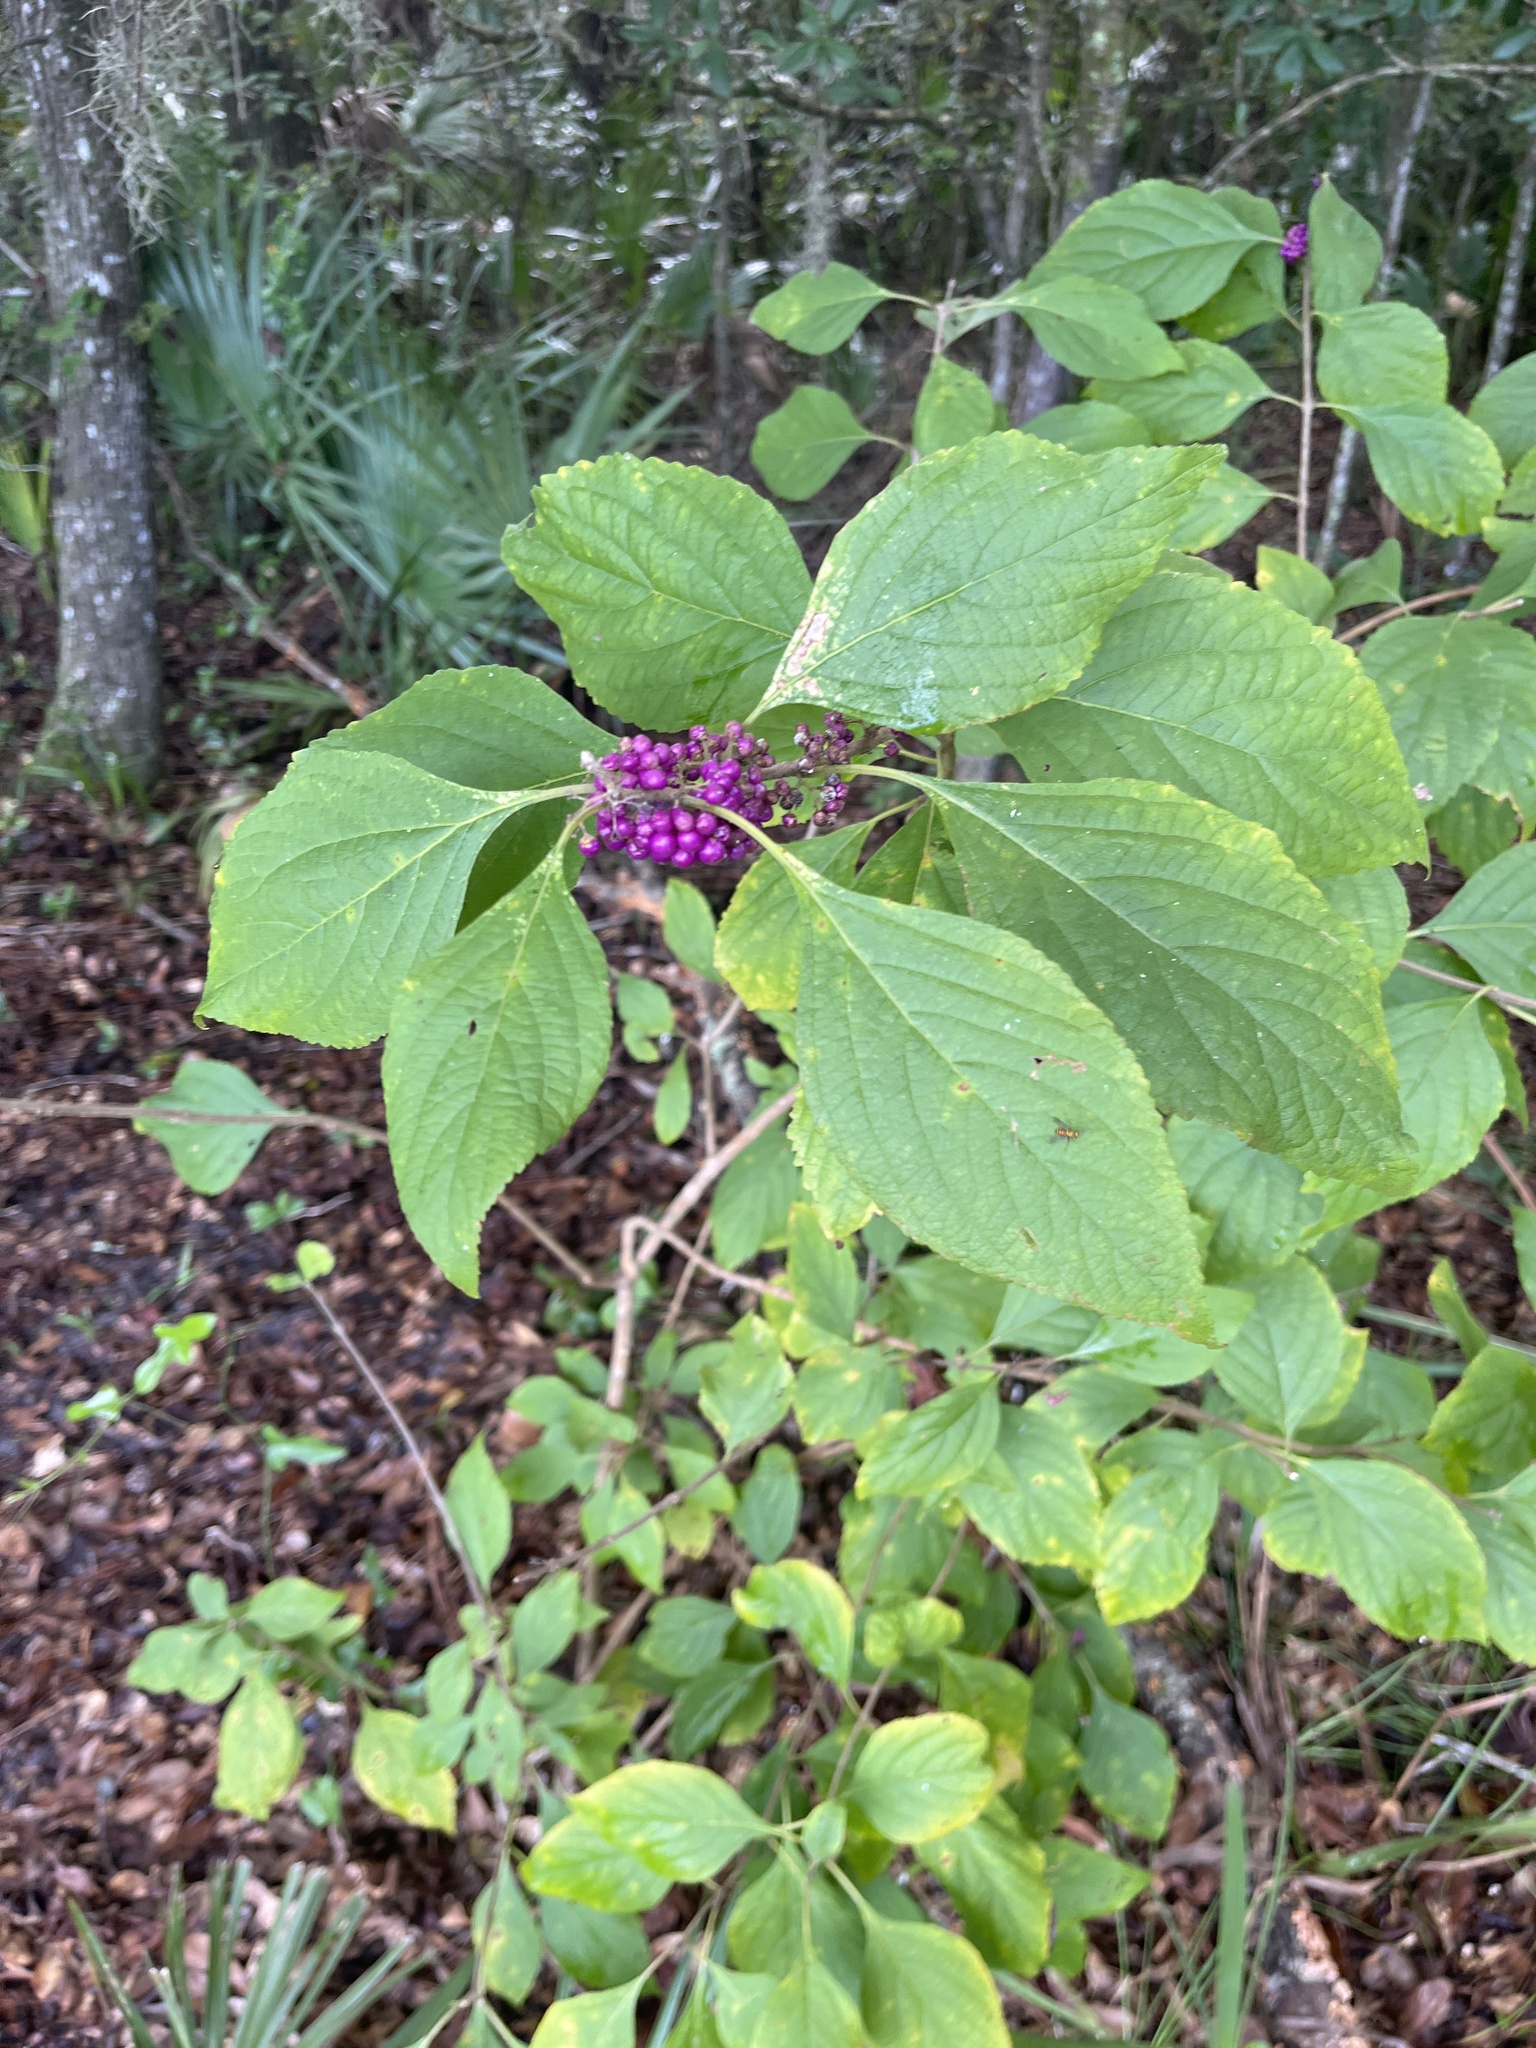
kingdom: Plantae
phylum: Tracheophyta
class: Magnoliopsida
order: Lamiales
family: Lamiaceae
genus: Callicarpa
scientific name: Callicarpa americana
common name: American beautyberry
